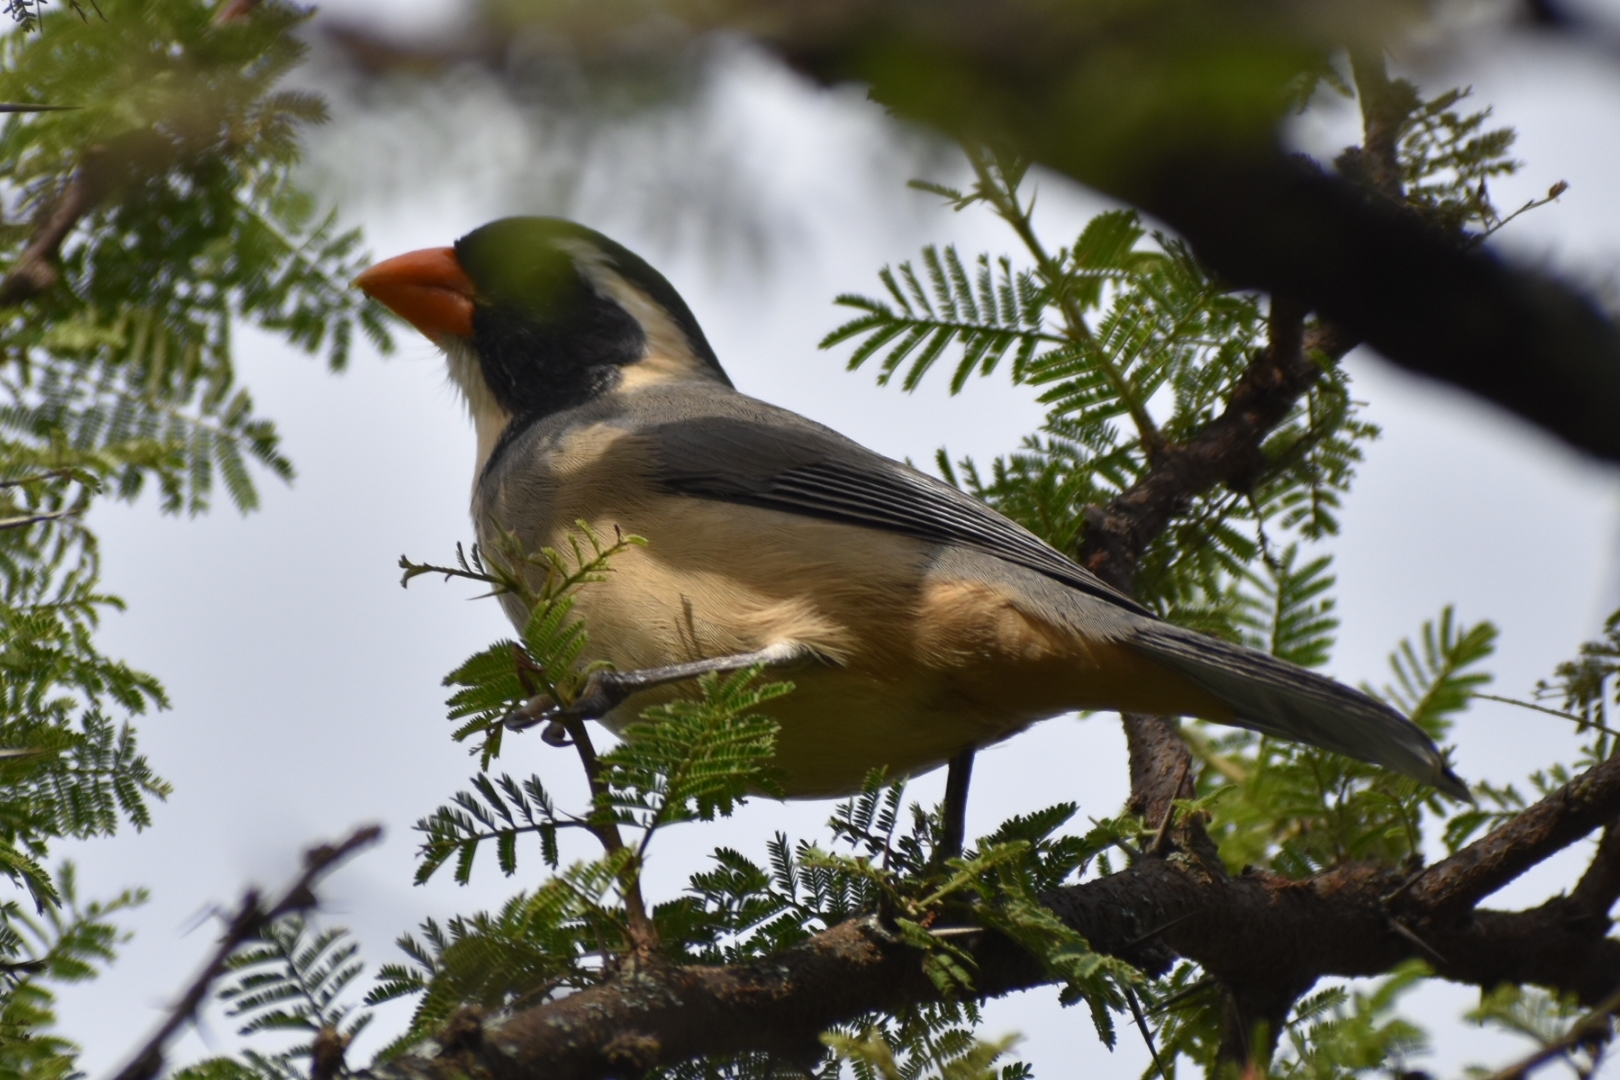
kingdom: Animalia
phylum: Chordata
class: Aves
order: Passeriformes
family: Thraupidae
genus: Saltator
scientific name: Saltator aurantiirostris
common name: Golden-billed saltator
